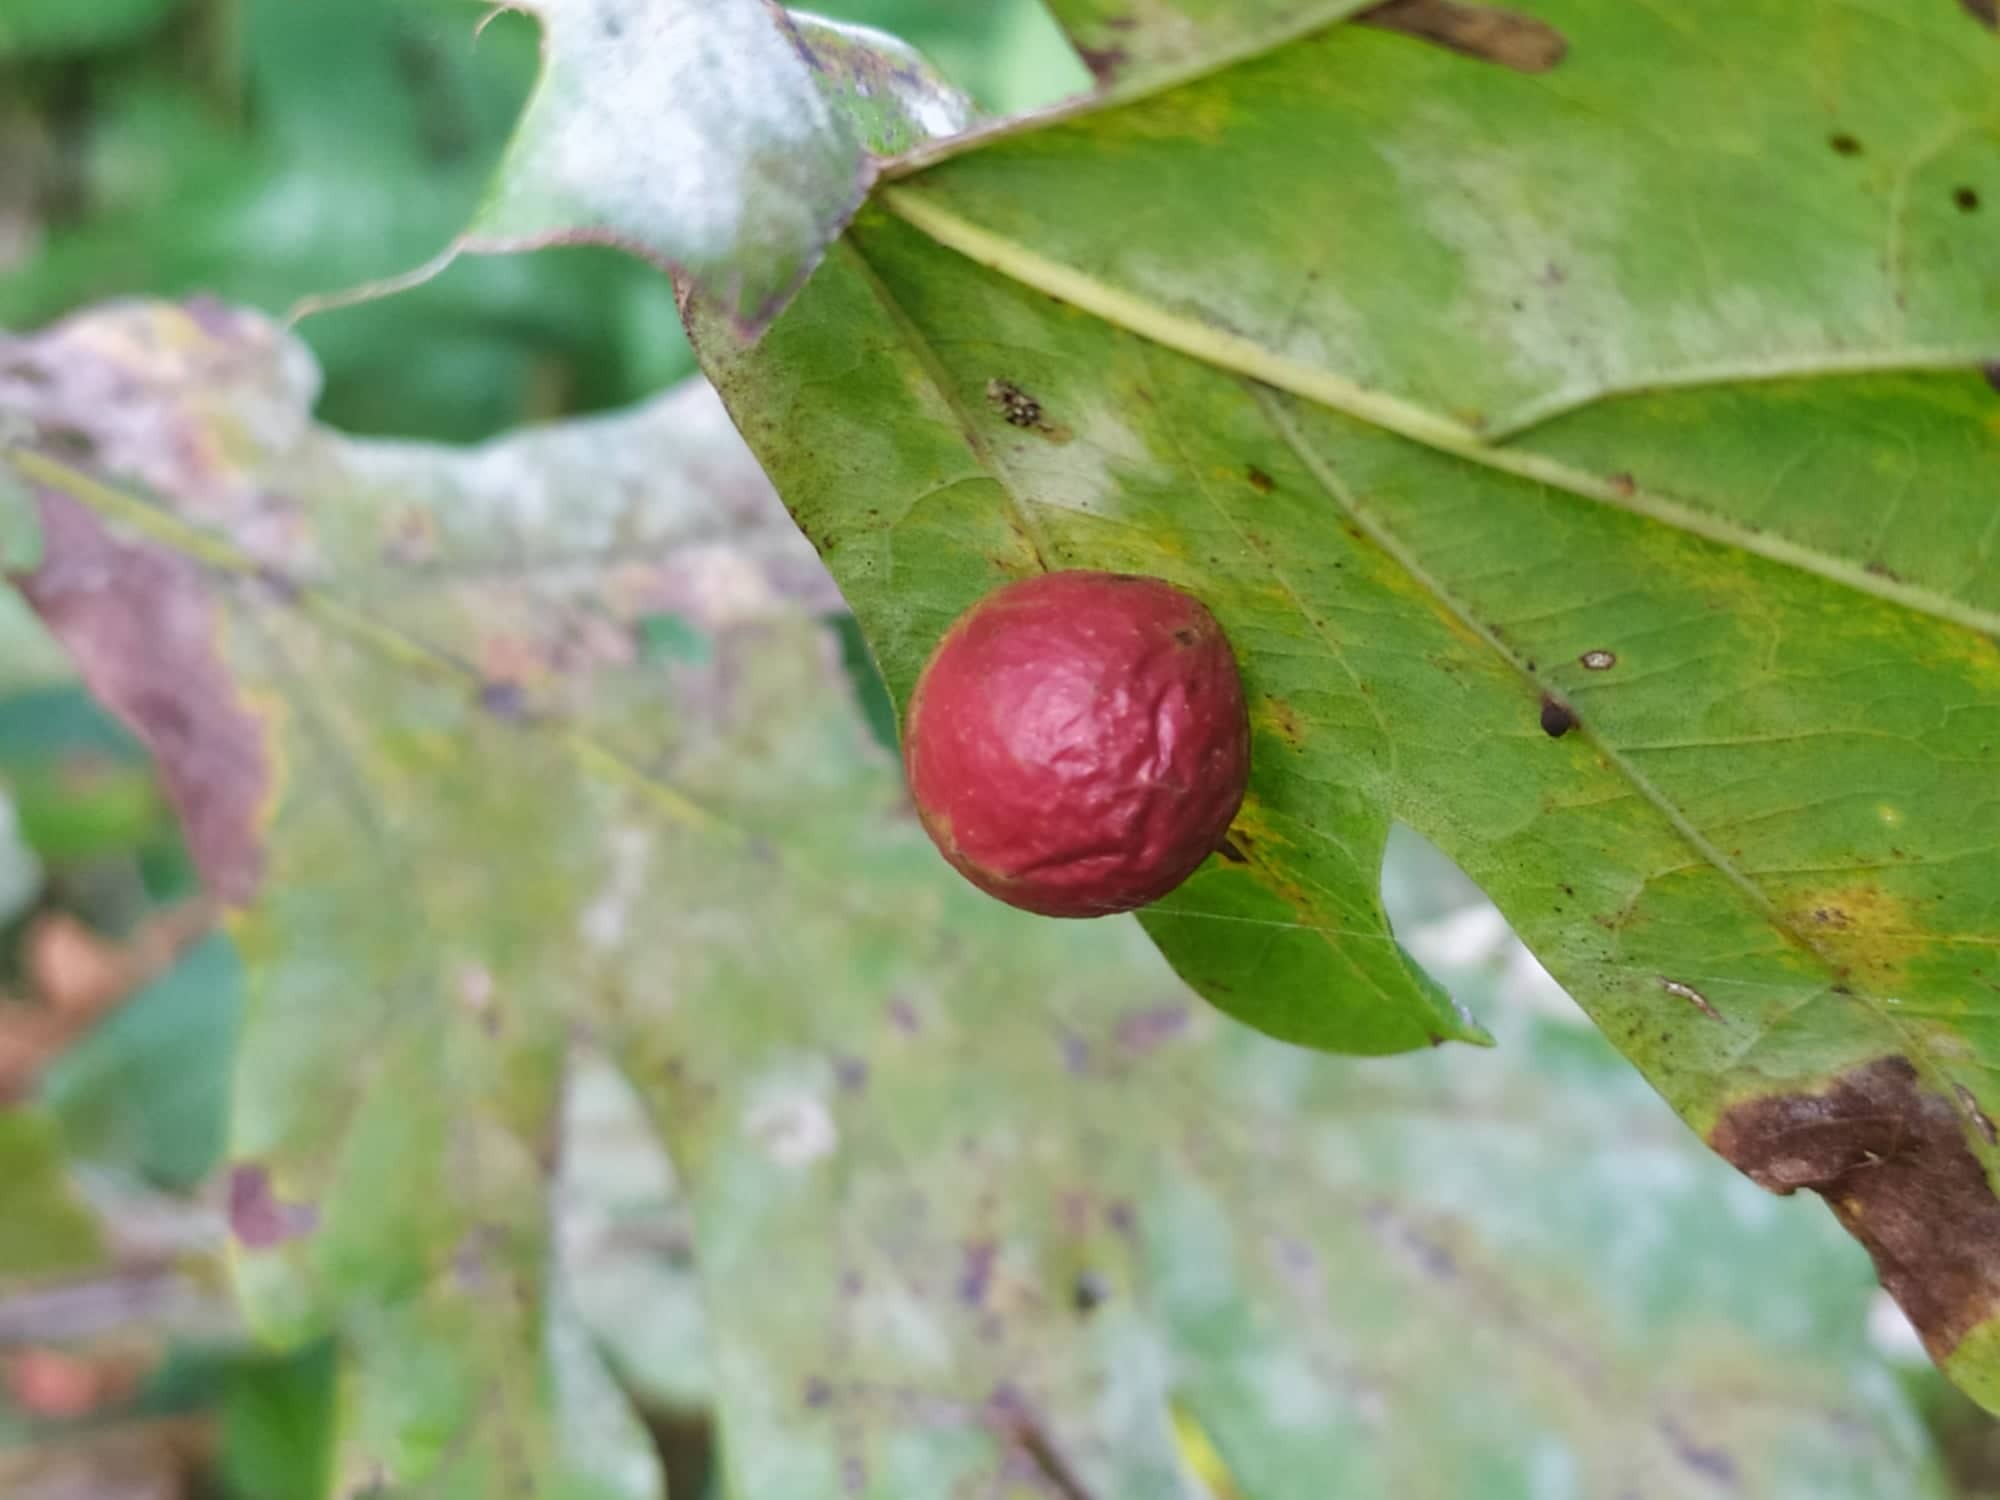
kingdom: Animalia
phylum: Arthropoda
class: Insecta
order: Hymenoptera
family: Cynipidae
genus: Cynips
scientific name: Cynips quercusfolii
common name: Cherry gall
